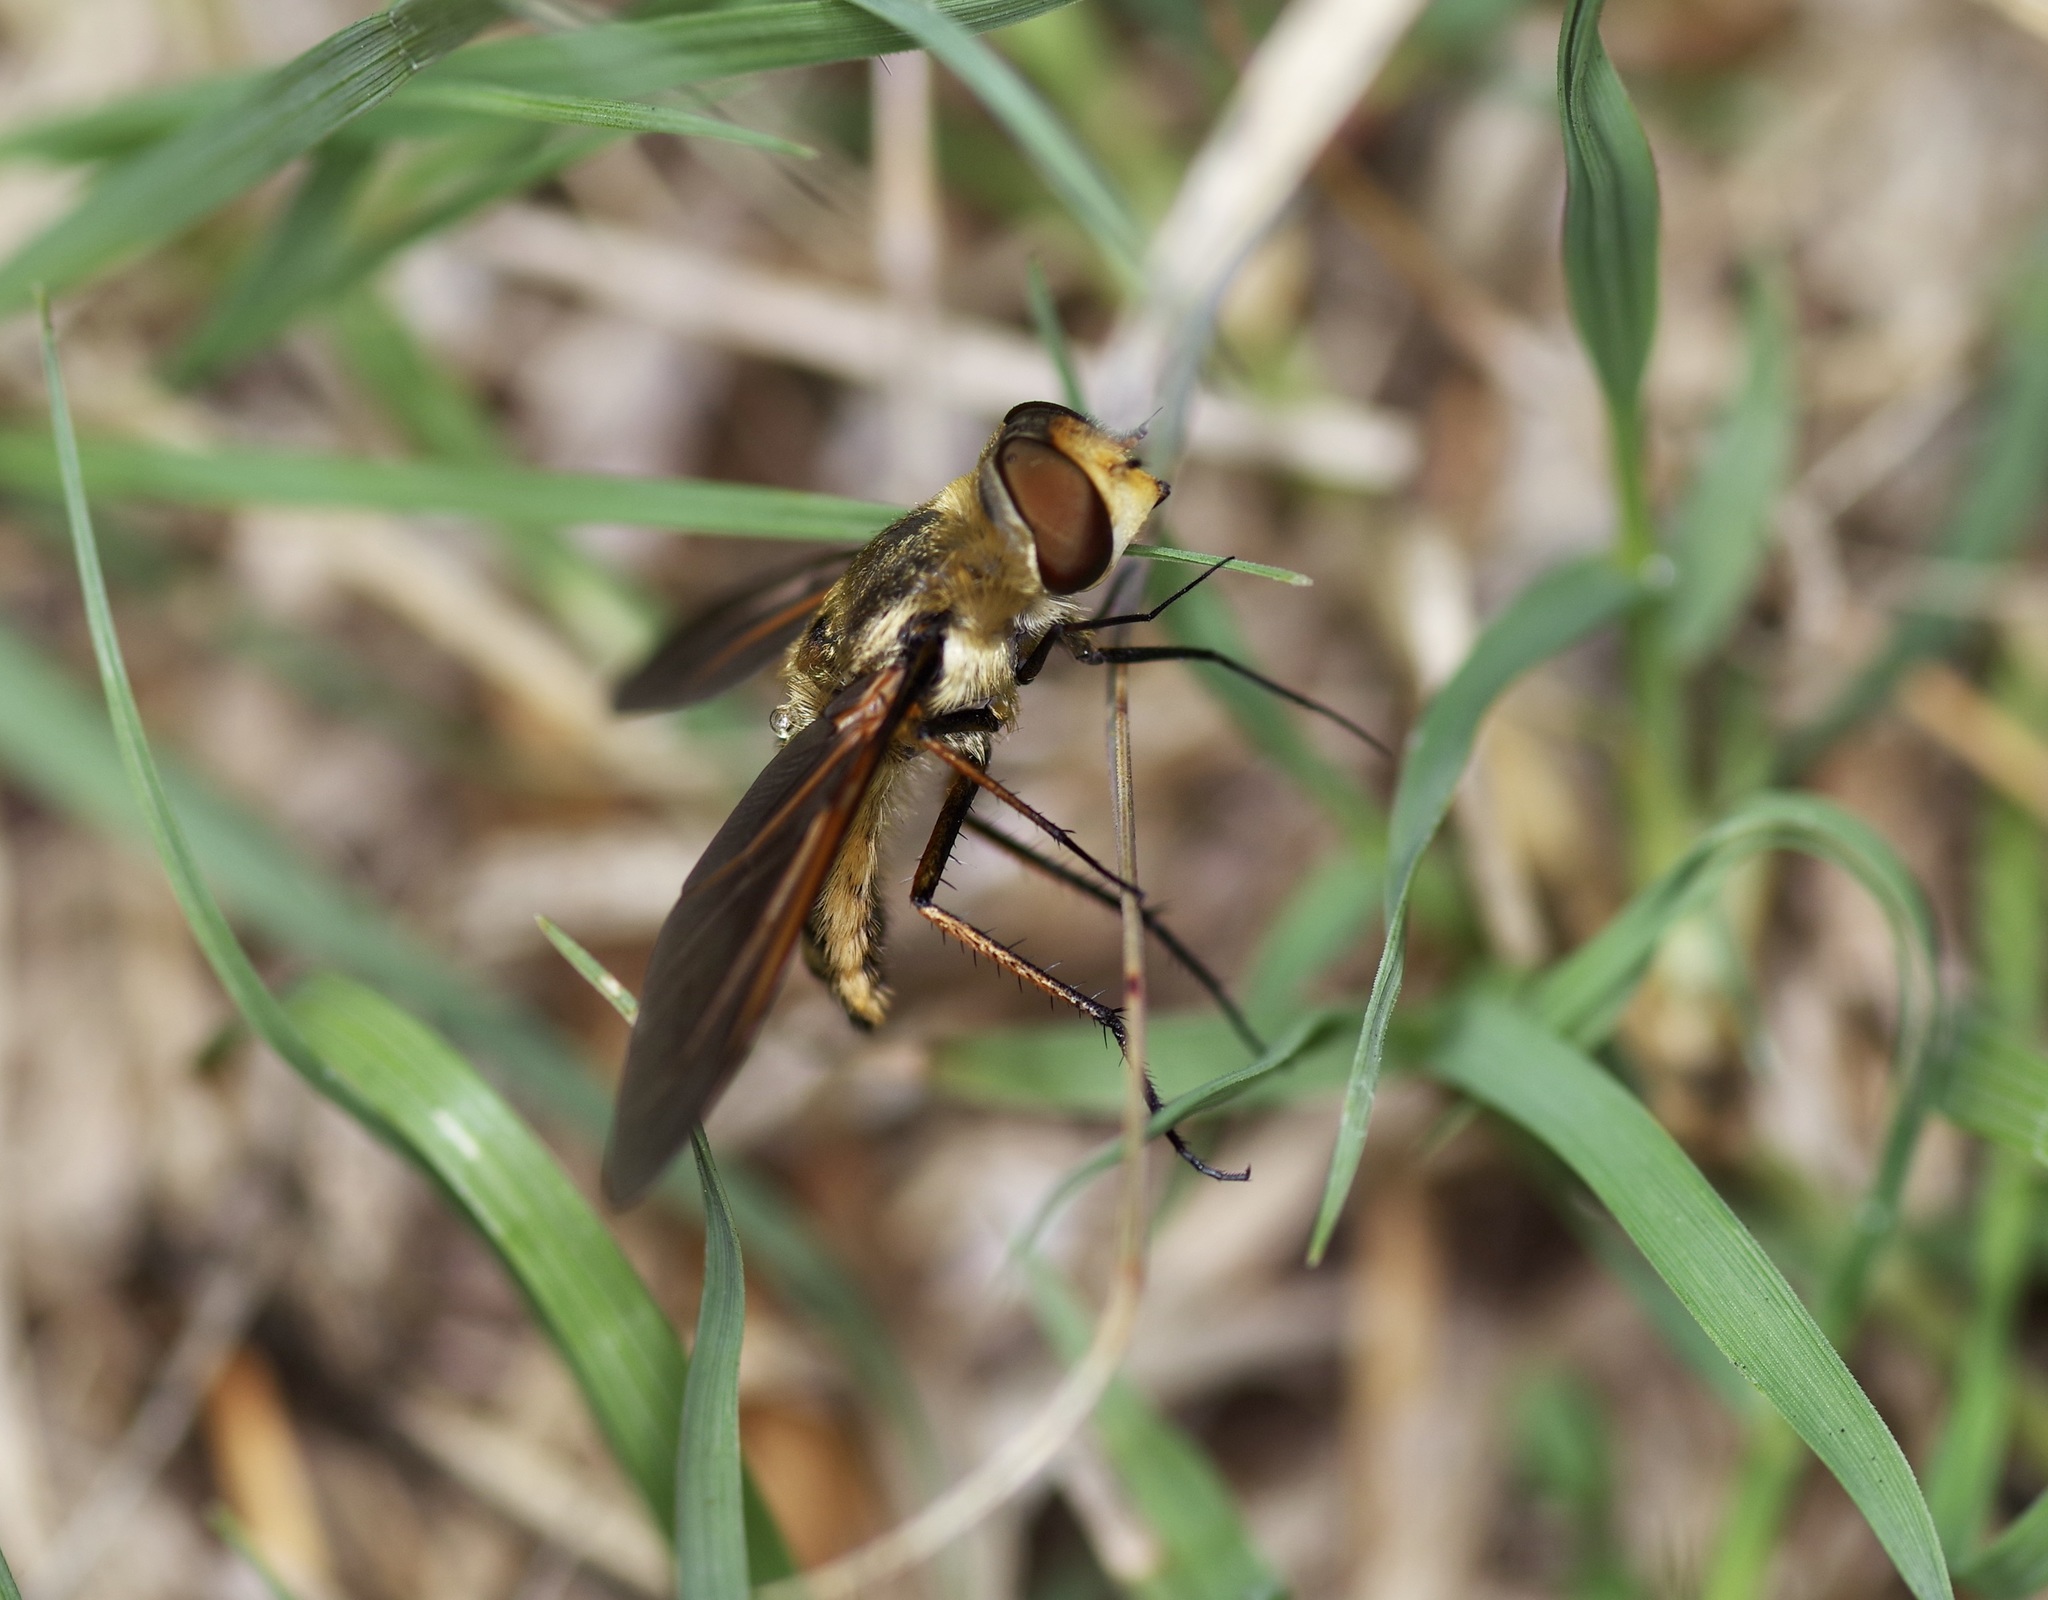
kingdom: Animalia
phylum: Arthropoda
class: Insecta
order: Diptera
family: Bombyliidae
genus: Poecilanthrax
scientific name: Poecilanthrax lucifer
